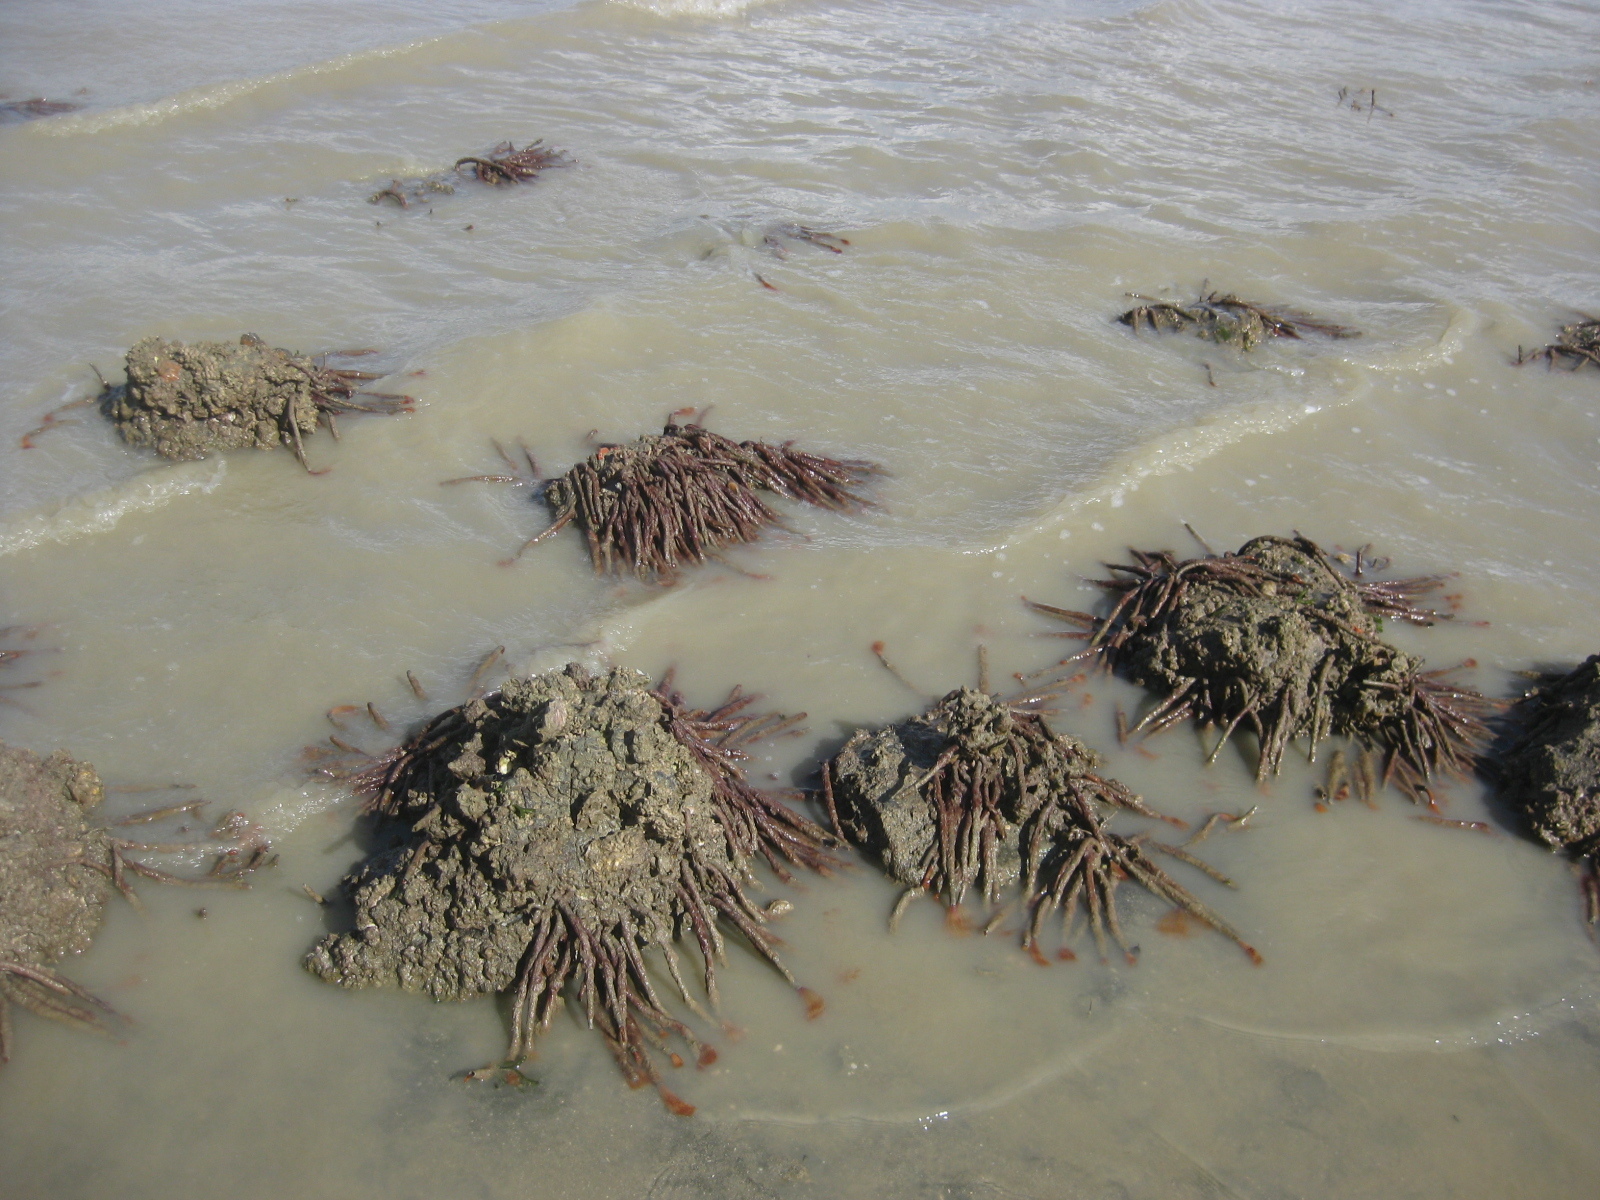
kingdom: Animalia
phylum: Annelida
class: Polychaeta
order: Sabellida
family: Sabellidae
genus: Sabella
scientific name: Sabella spallanzanii
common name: Feather duster worm
